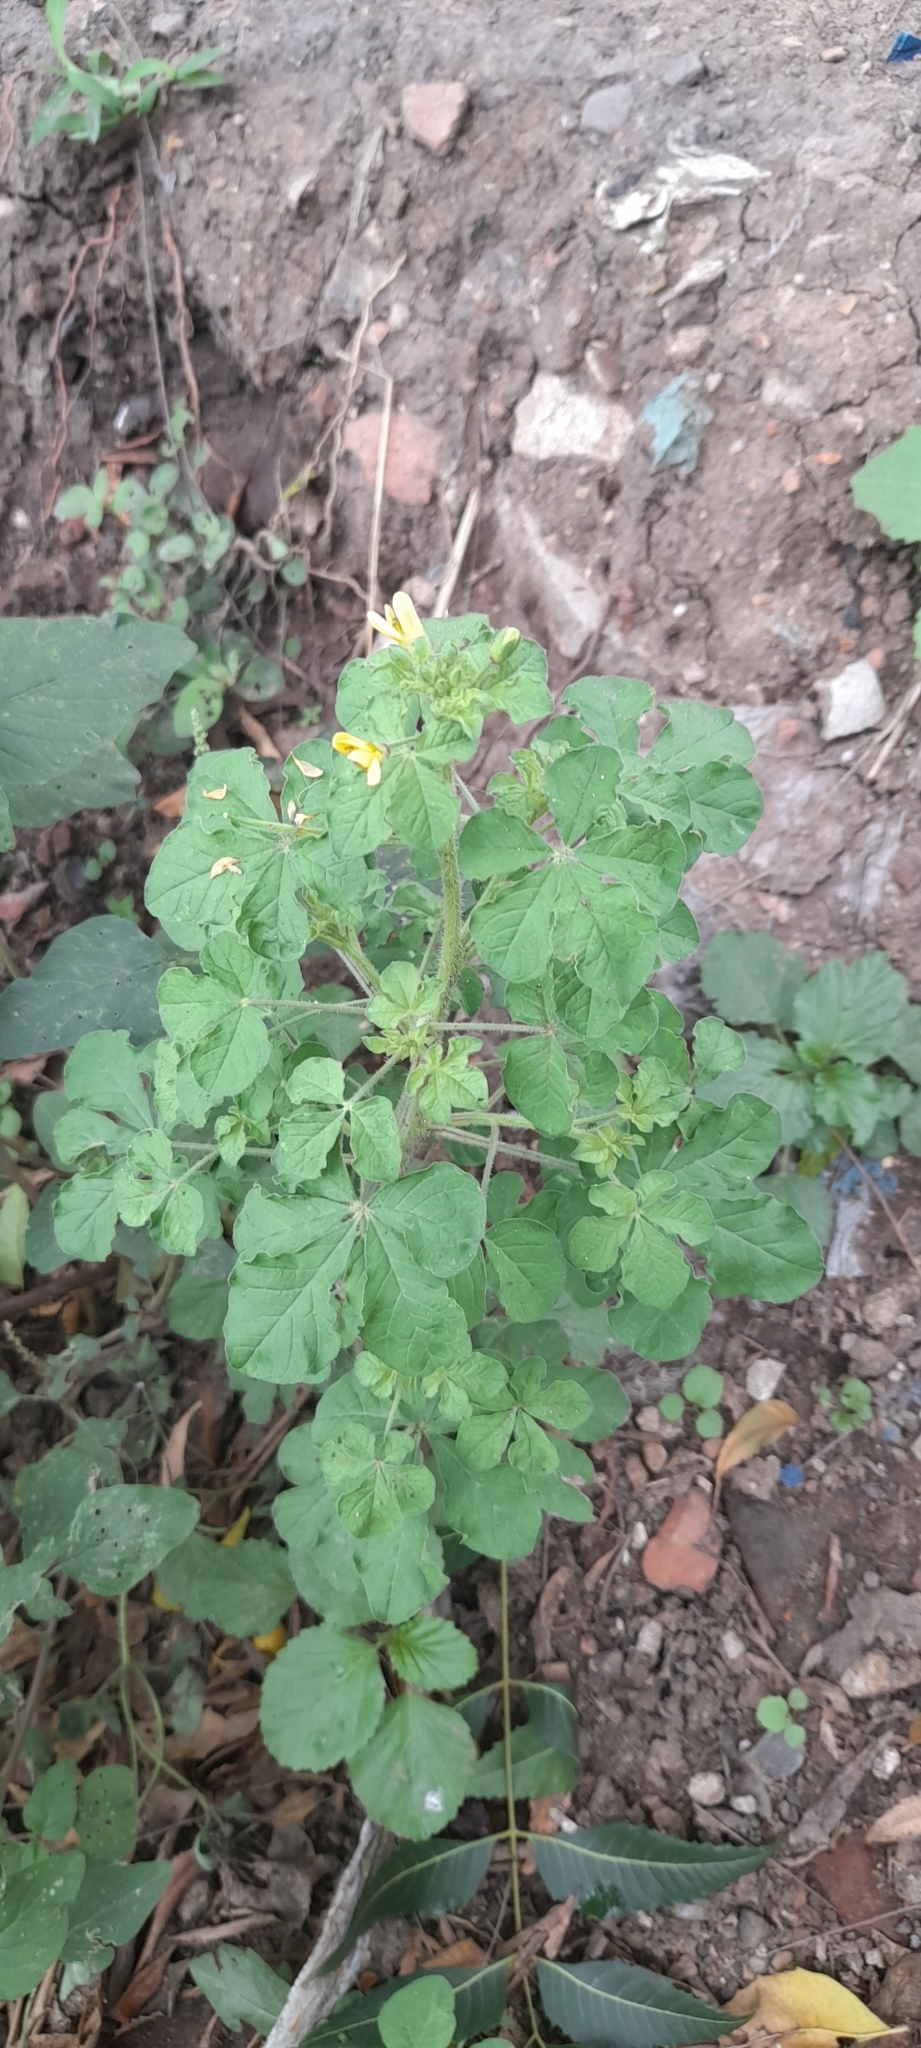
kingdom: Plantae
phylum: Tracheophyta
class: Magnoliopsida
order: Brassicales
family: Cleomaceae
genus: Arivela
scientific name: Arivela viscosa
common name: Asian spiderflower
